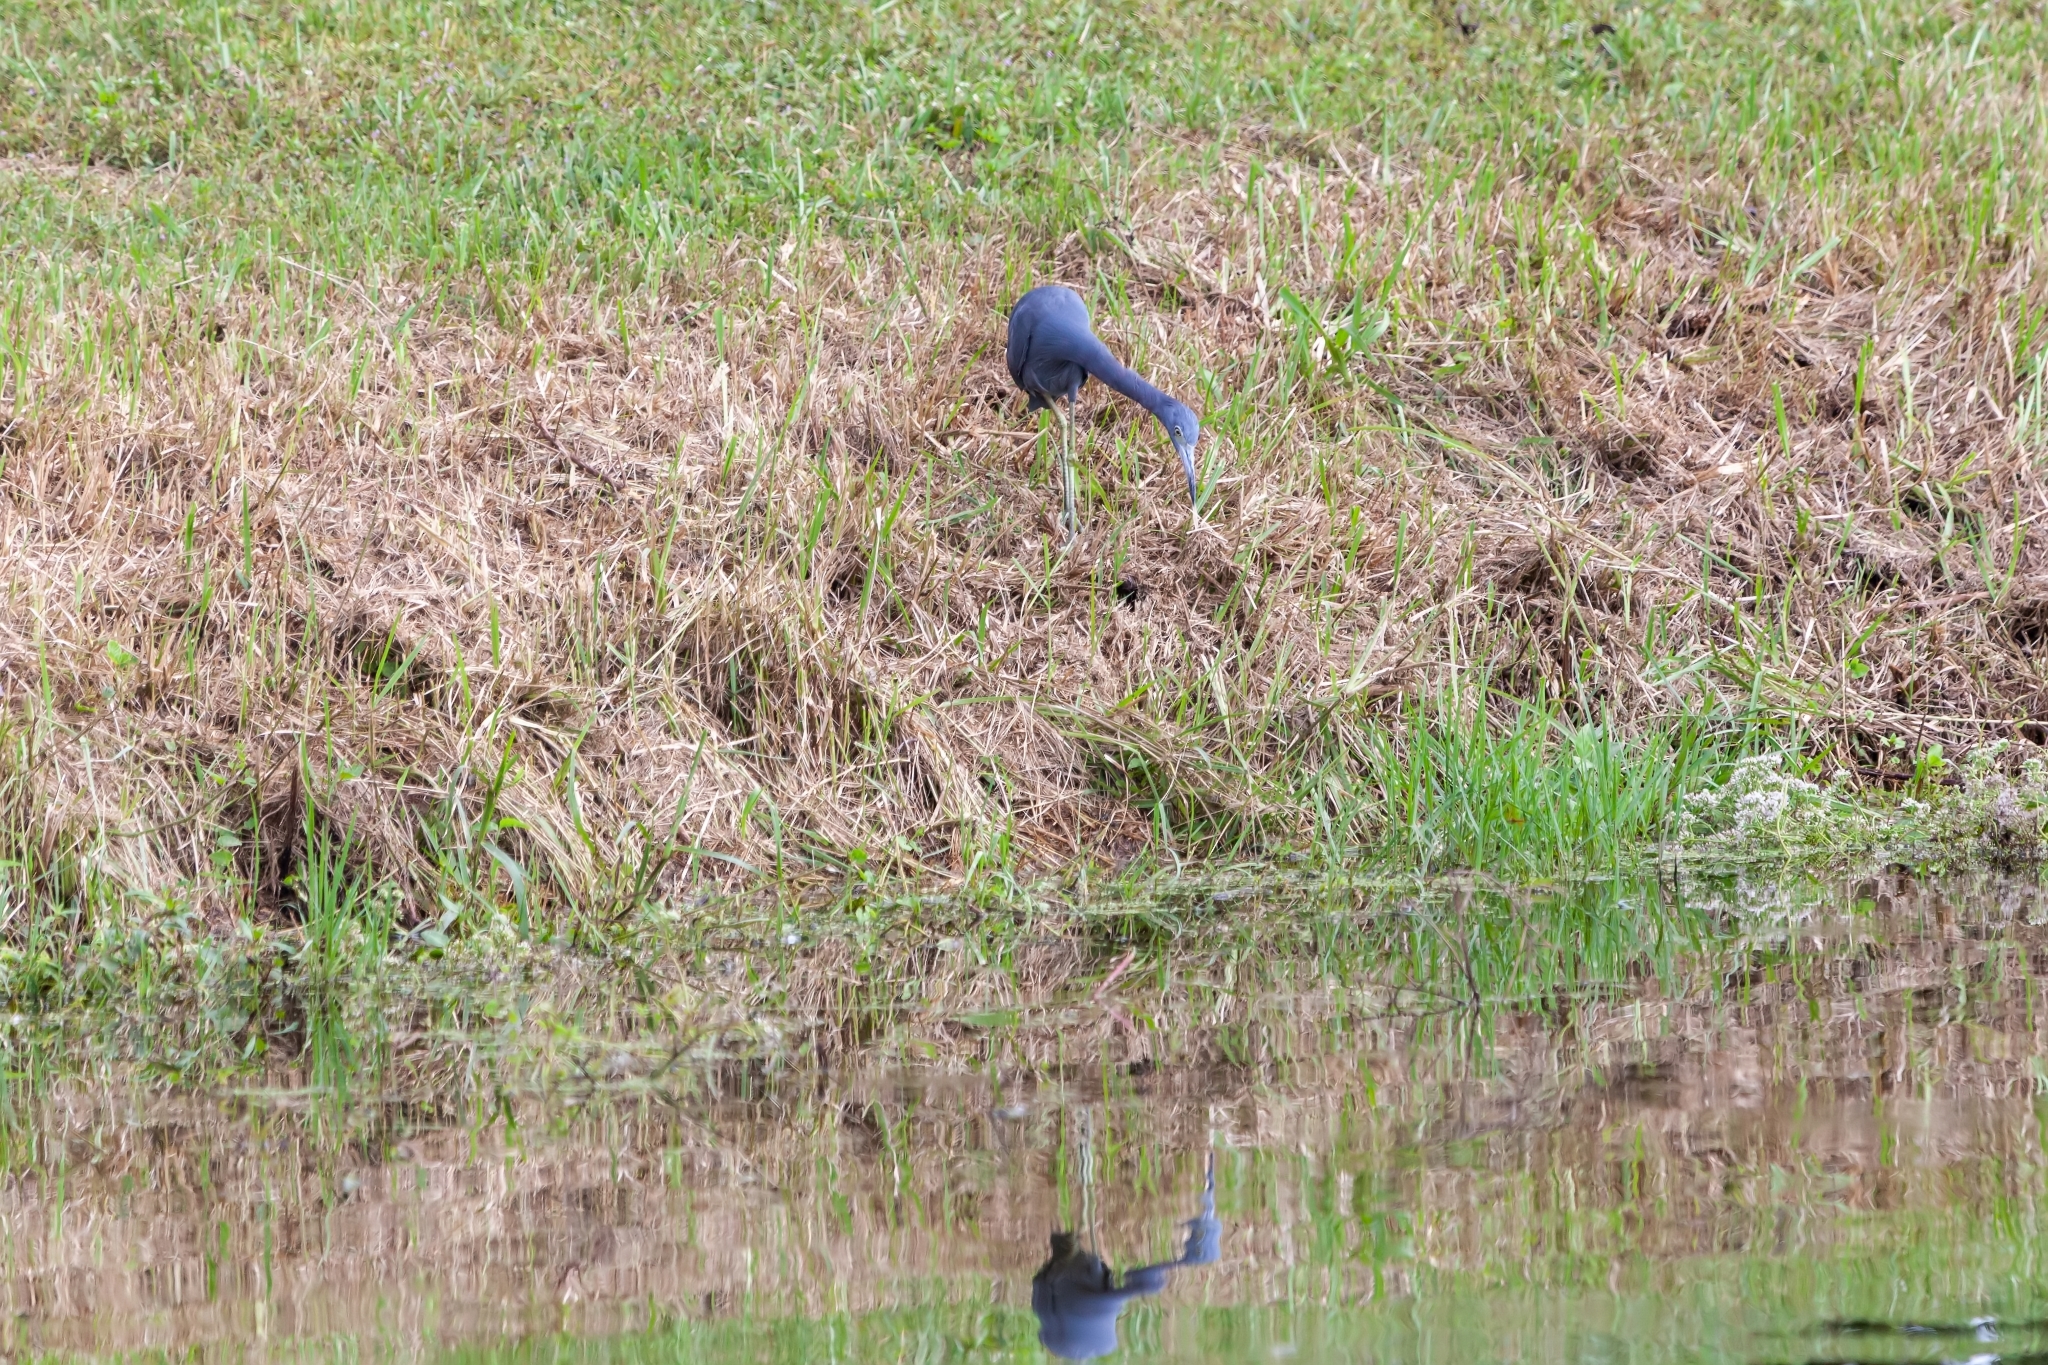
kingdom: Animalia
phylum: Chordata
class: Aves
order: Pelecaniformes
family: Ardeidae
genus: Egretta
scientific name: Egretta caerulea
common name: Little blue heron
